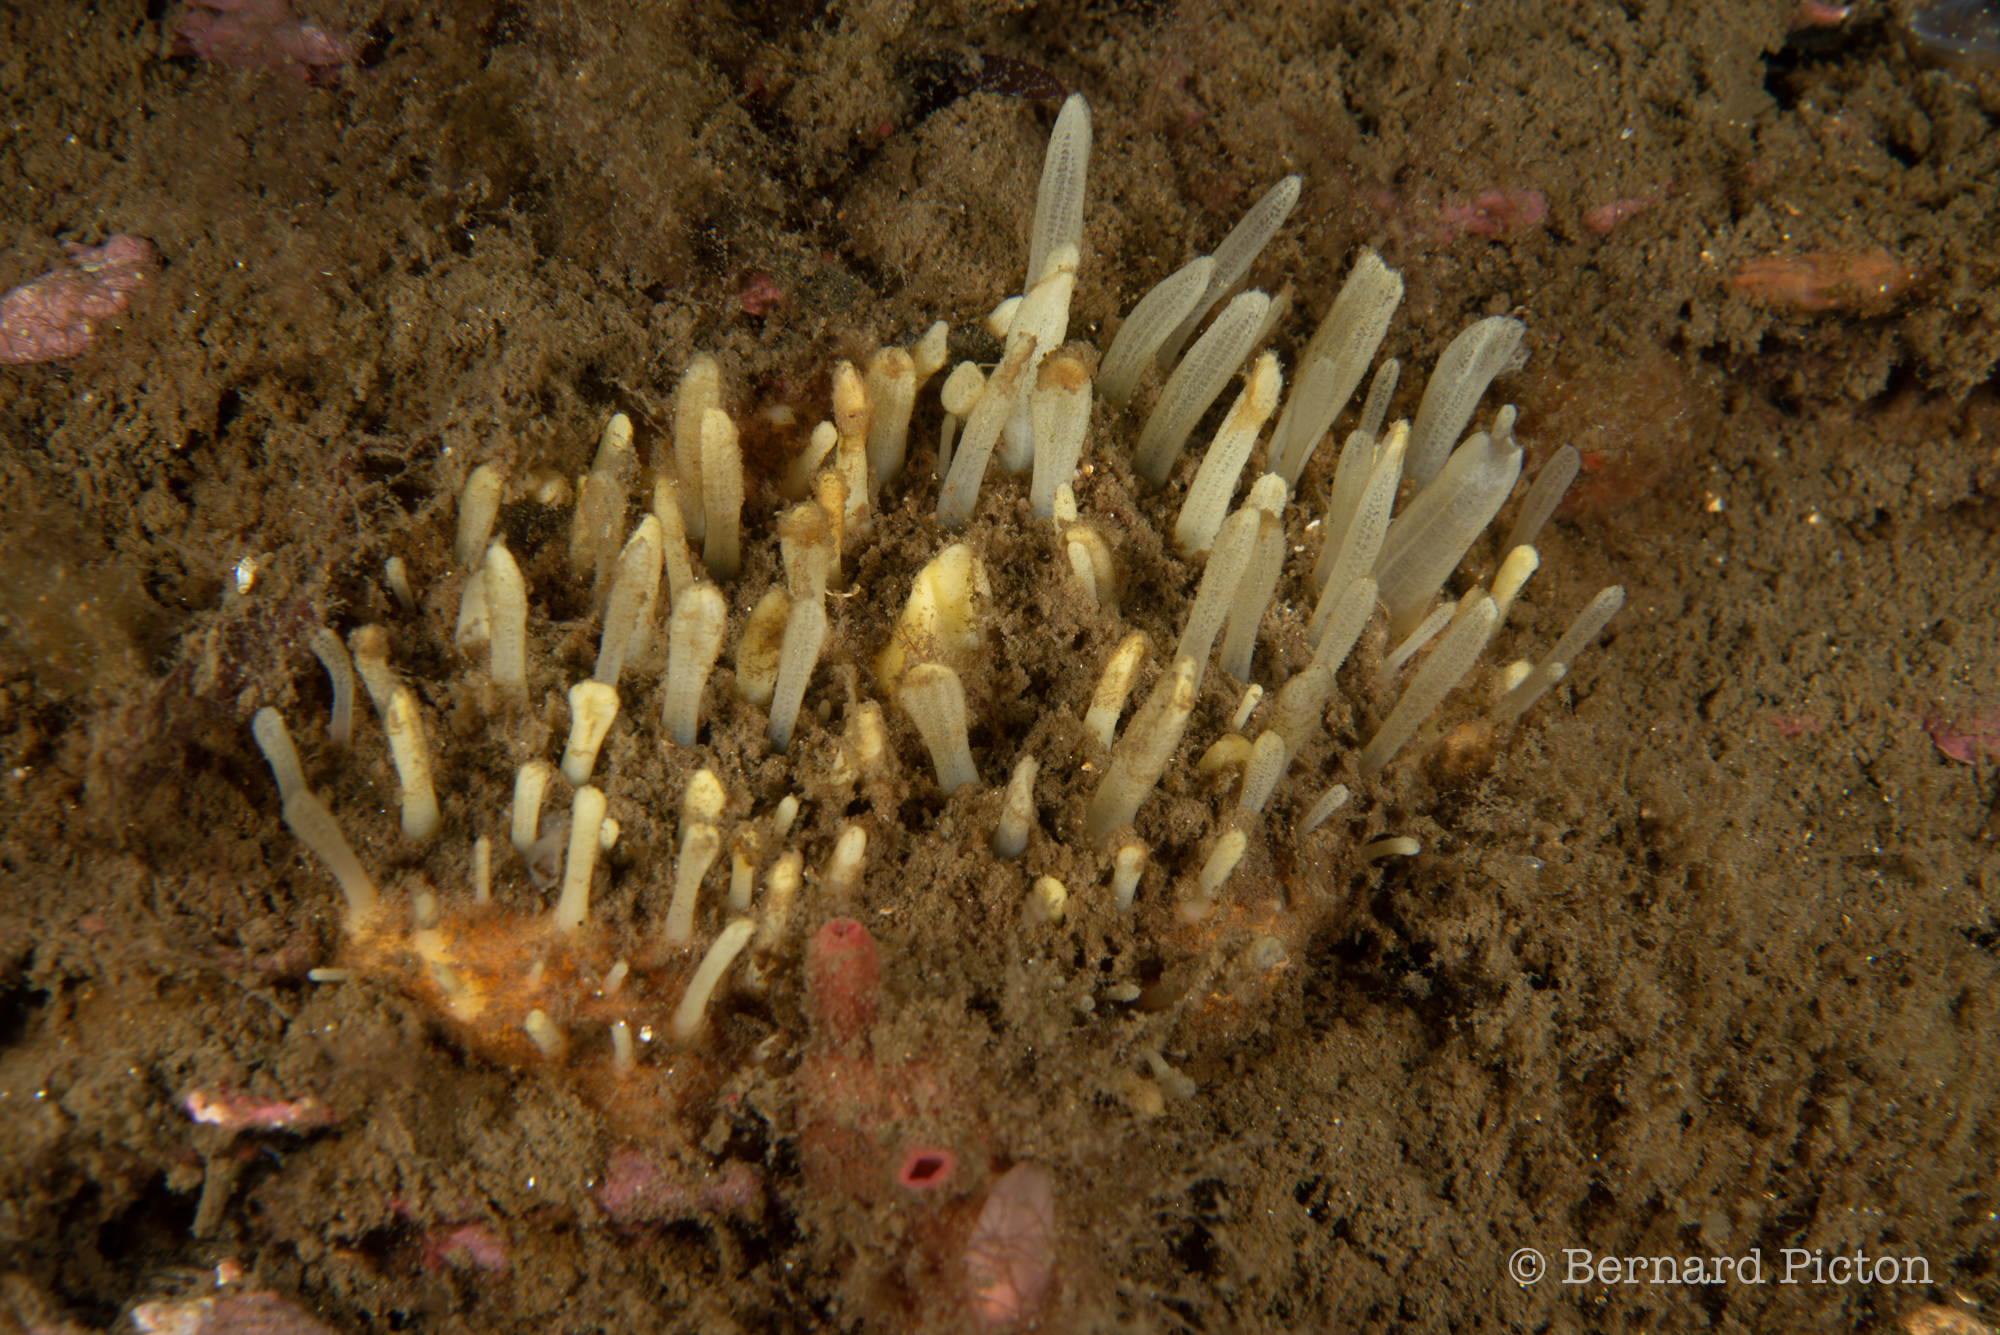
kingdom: Animalia
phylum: Porifera
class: Demospongiae
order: Polymastiida
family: Polymastiidae
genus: Polymastia
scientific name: Polymastia penicillus
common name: Chimney sponge
